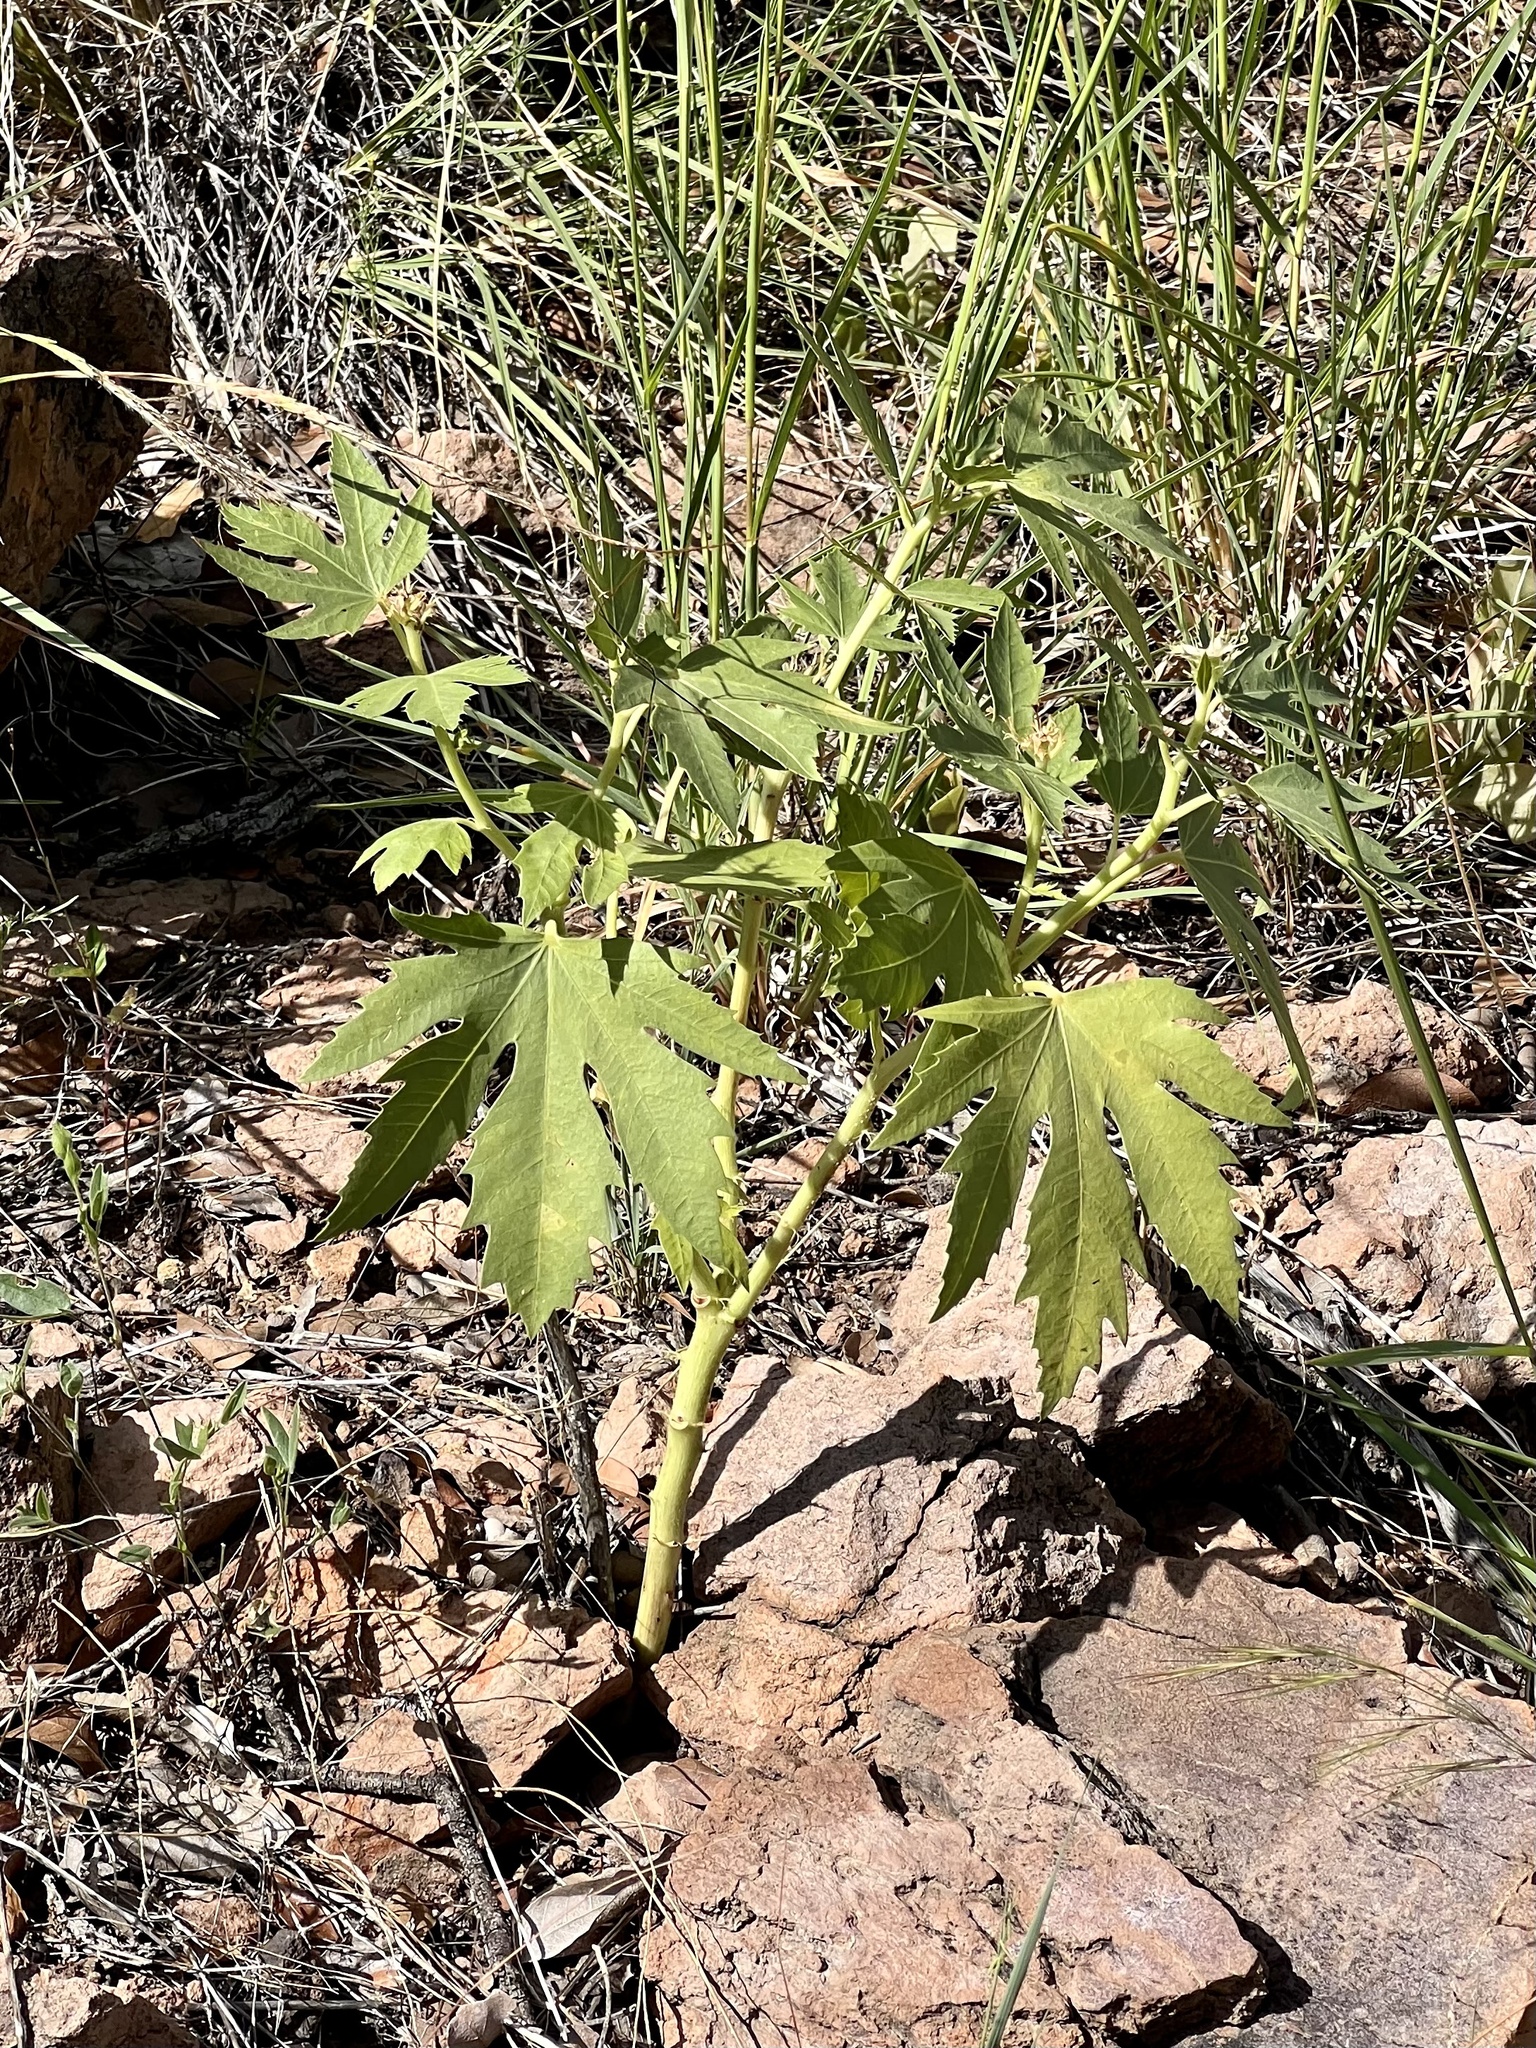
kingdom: Plantae
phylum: Tracheophyta
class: Magnoliopsida
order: Malpighiales
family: Euphorbiaceae
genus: Jatropha
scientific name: Jatropha macrorhiza
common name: Ragged nettlespurge
